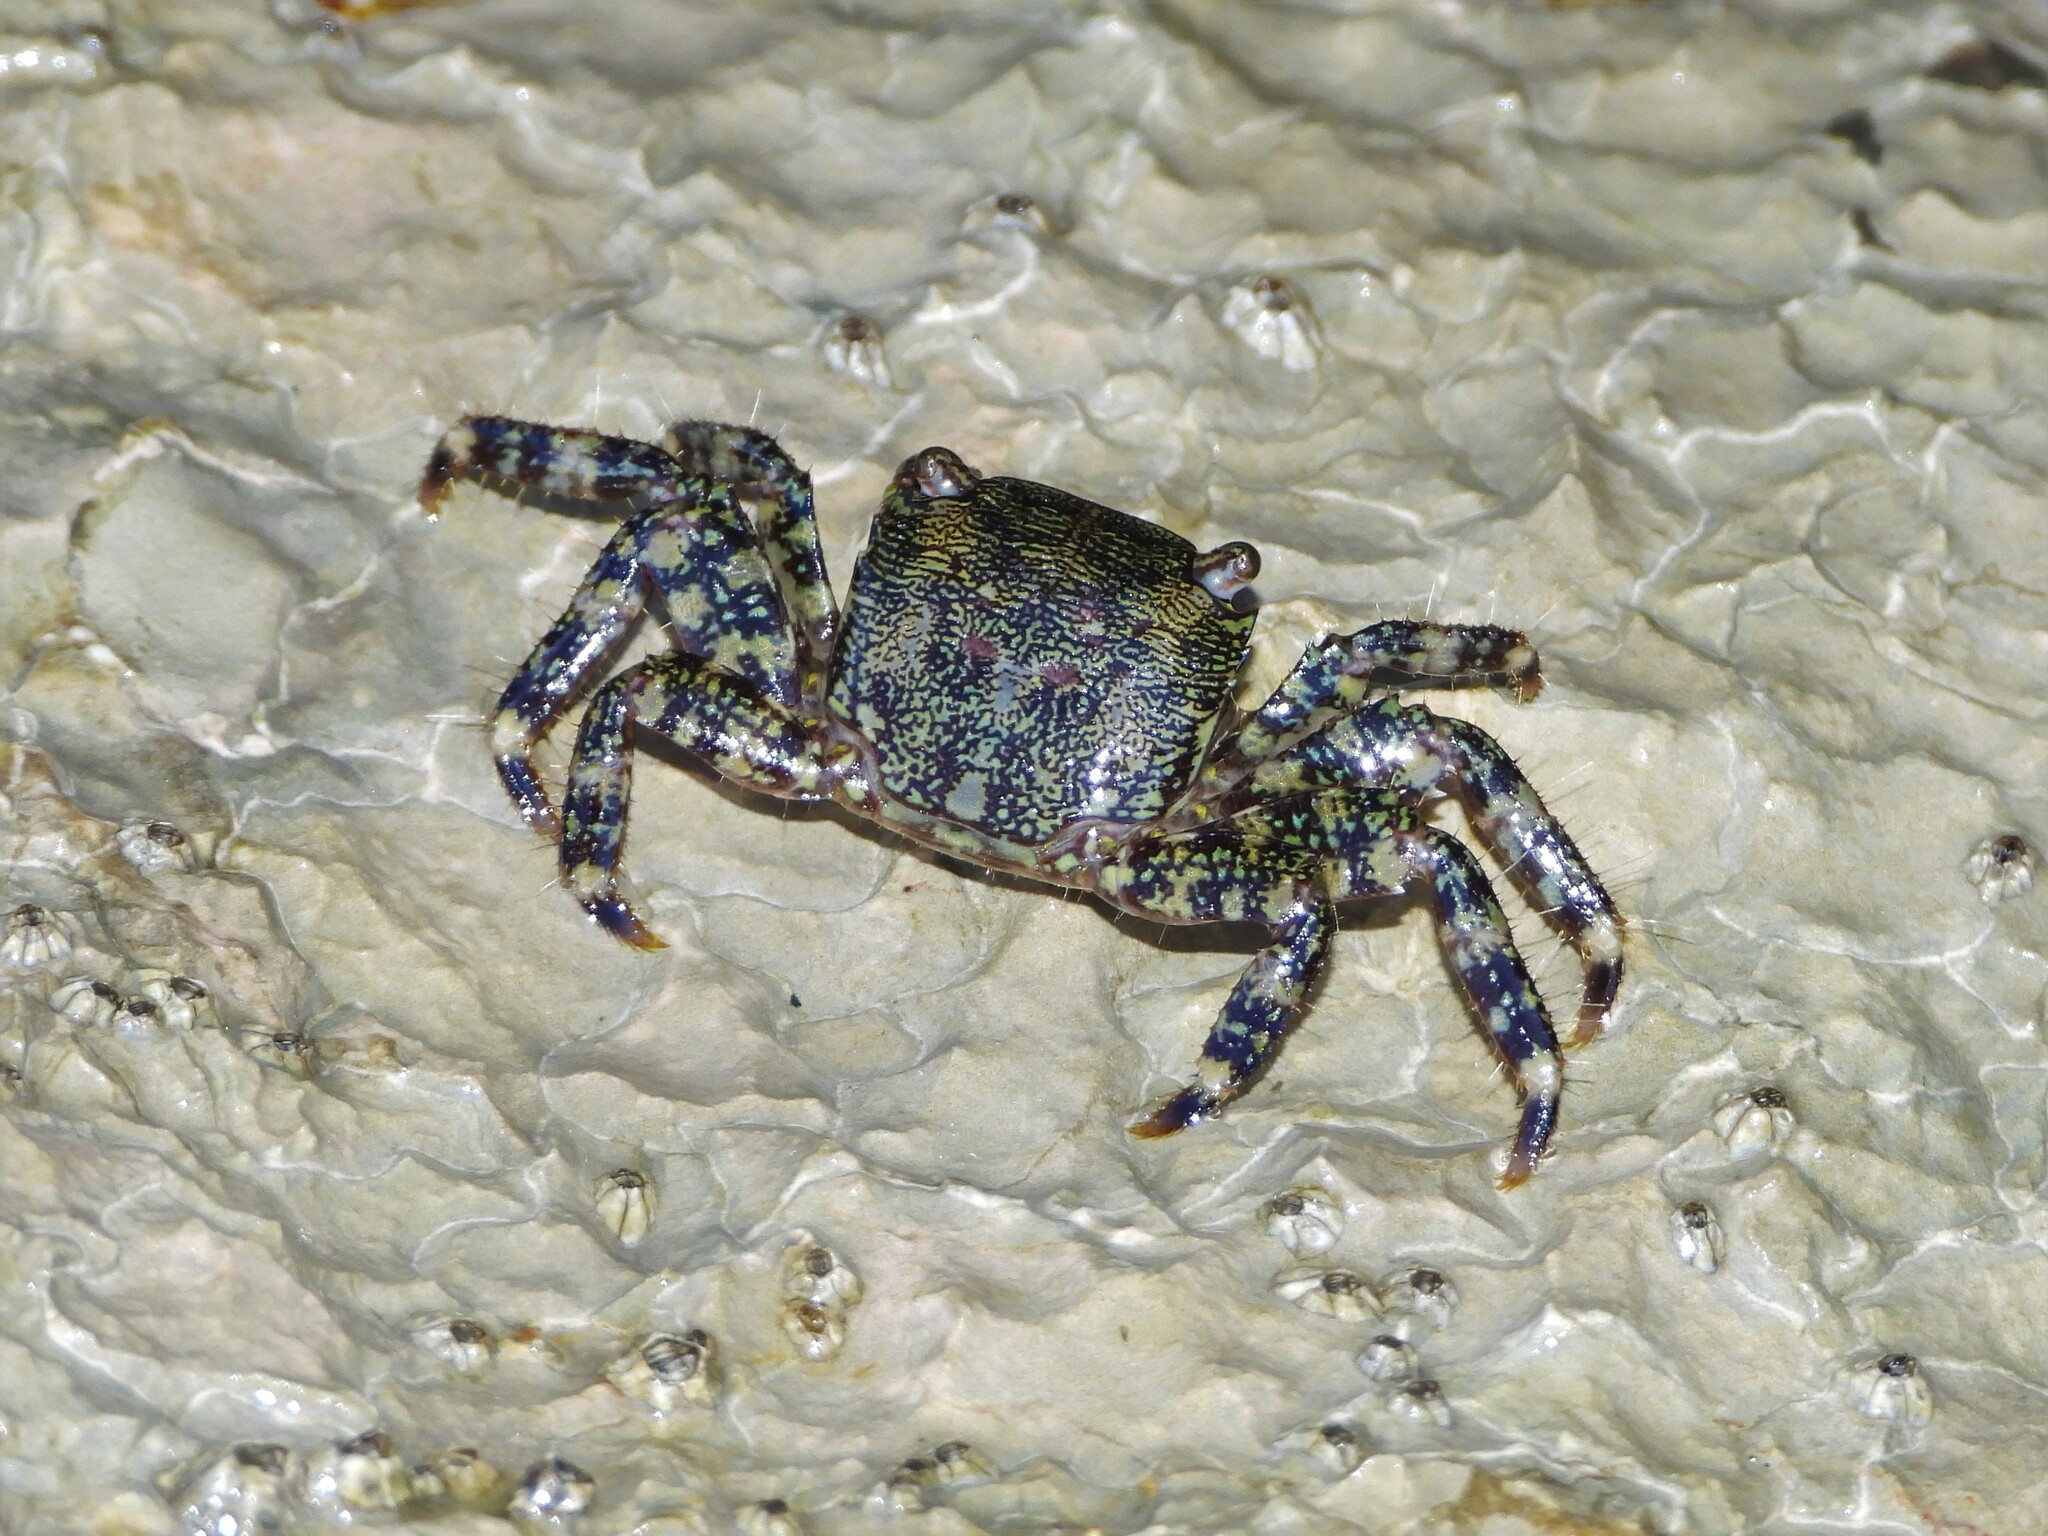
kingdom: Animalia
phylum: Arthropoda
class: Malacostraca
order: Decapoda
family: Grapsidae
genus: Pachygrapsus
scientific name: Pachygrapsus marmoratus
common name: Marbled rock crab
